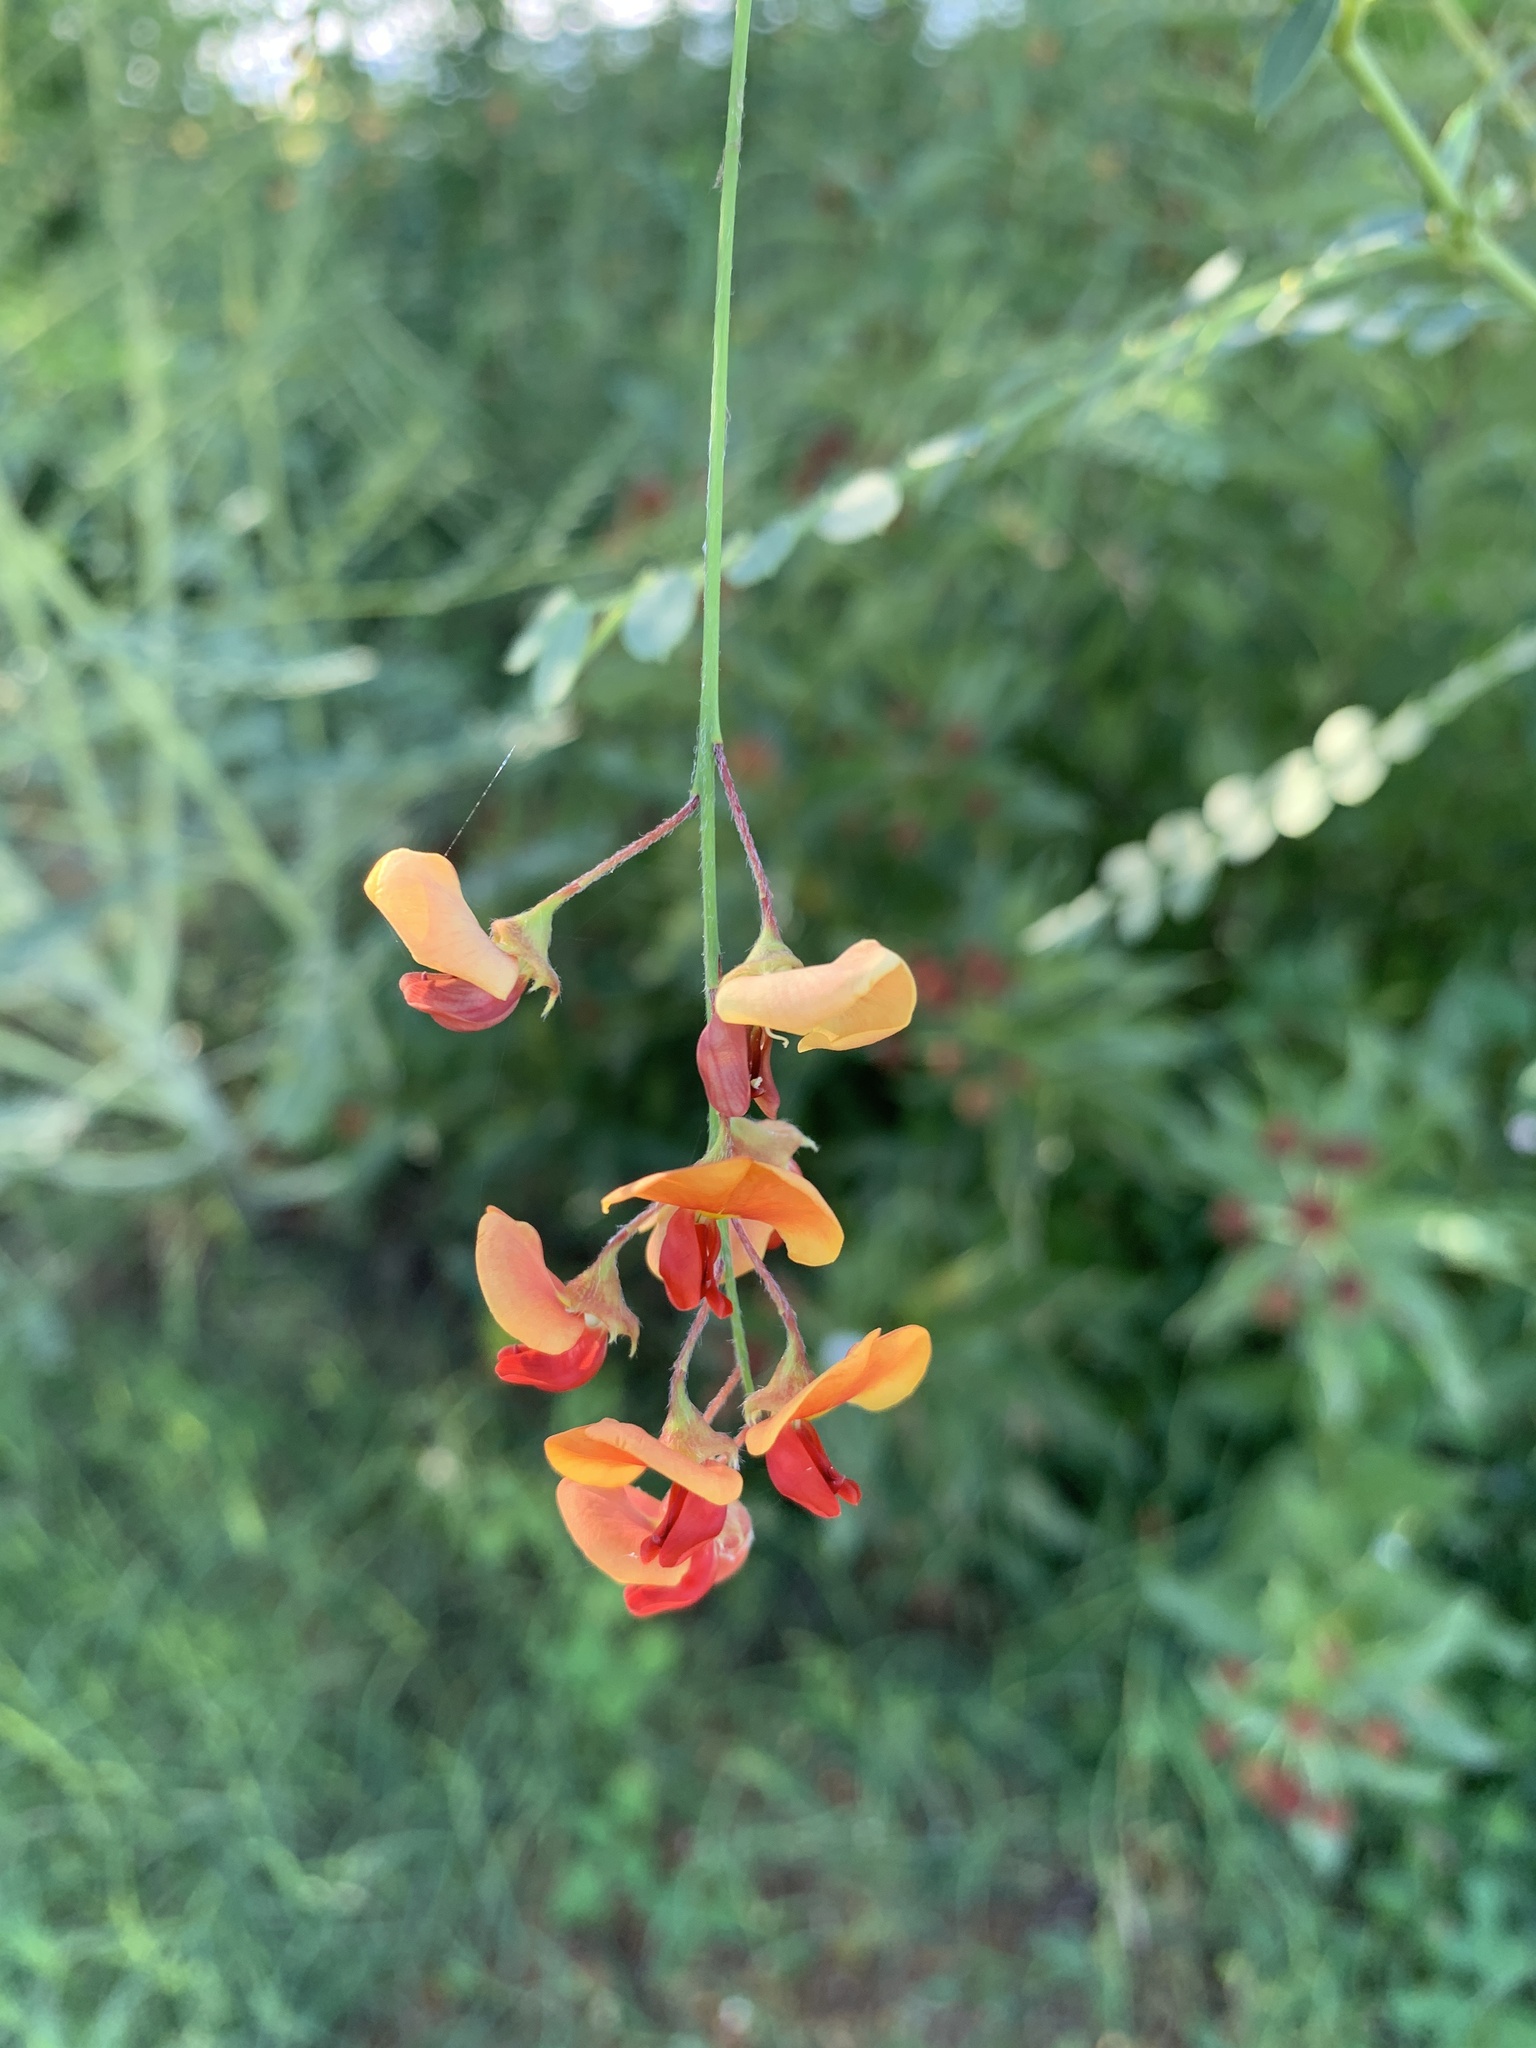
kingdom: Plantae
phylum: Tracheophyta
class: Magnoliopsida
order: Fabales
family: Fabaceae
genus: Sesbania
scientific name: Sesbania vesicaria
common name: Bagpod
